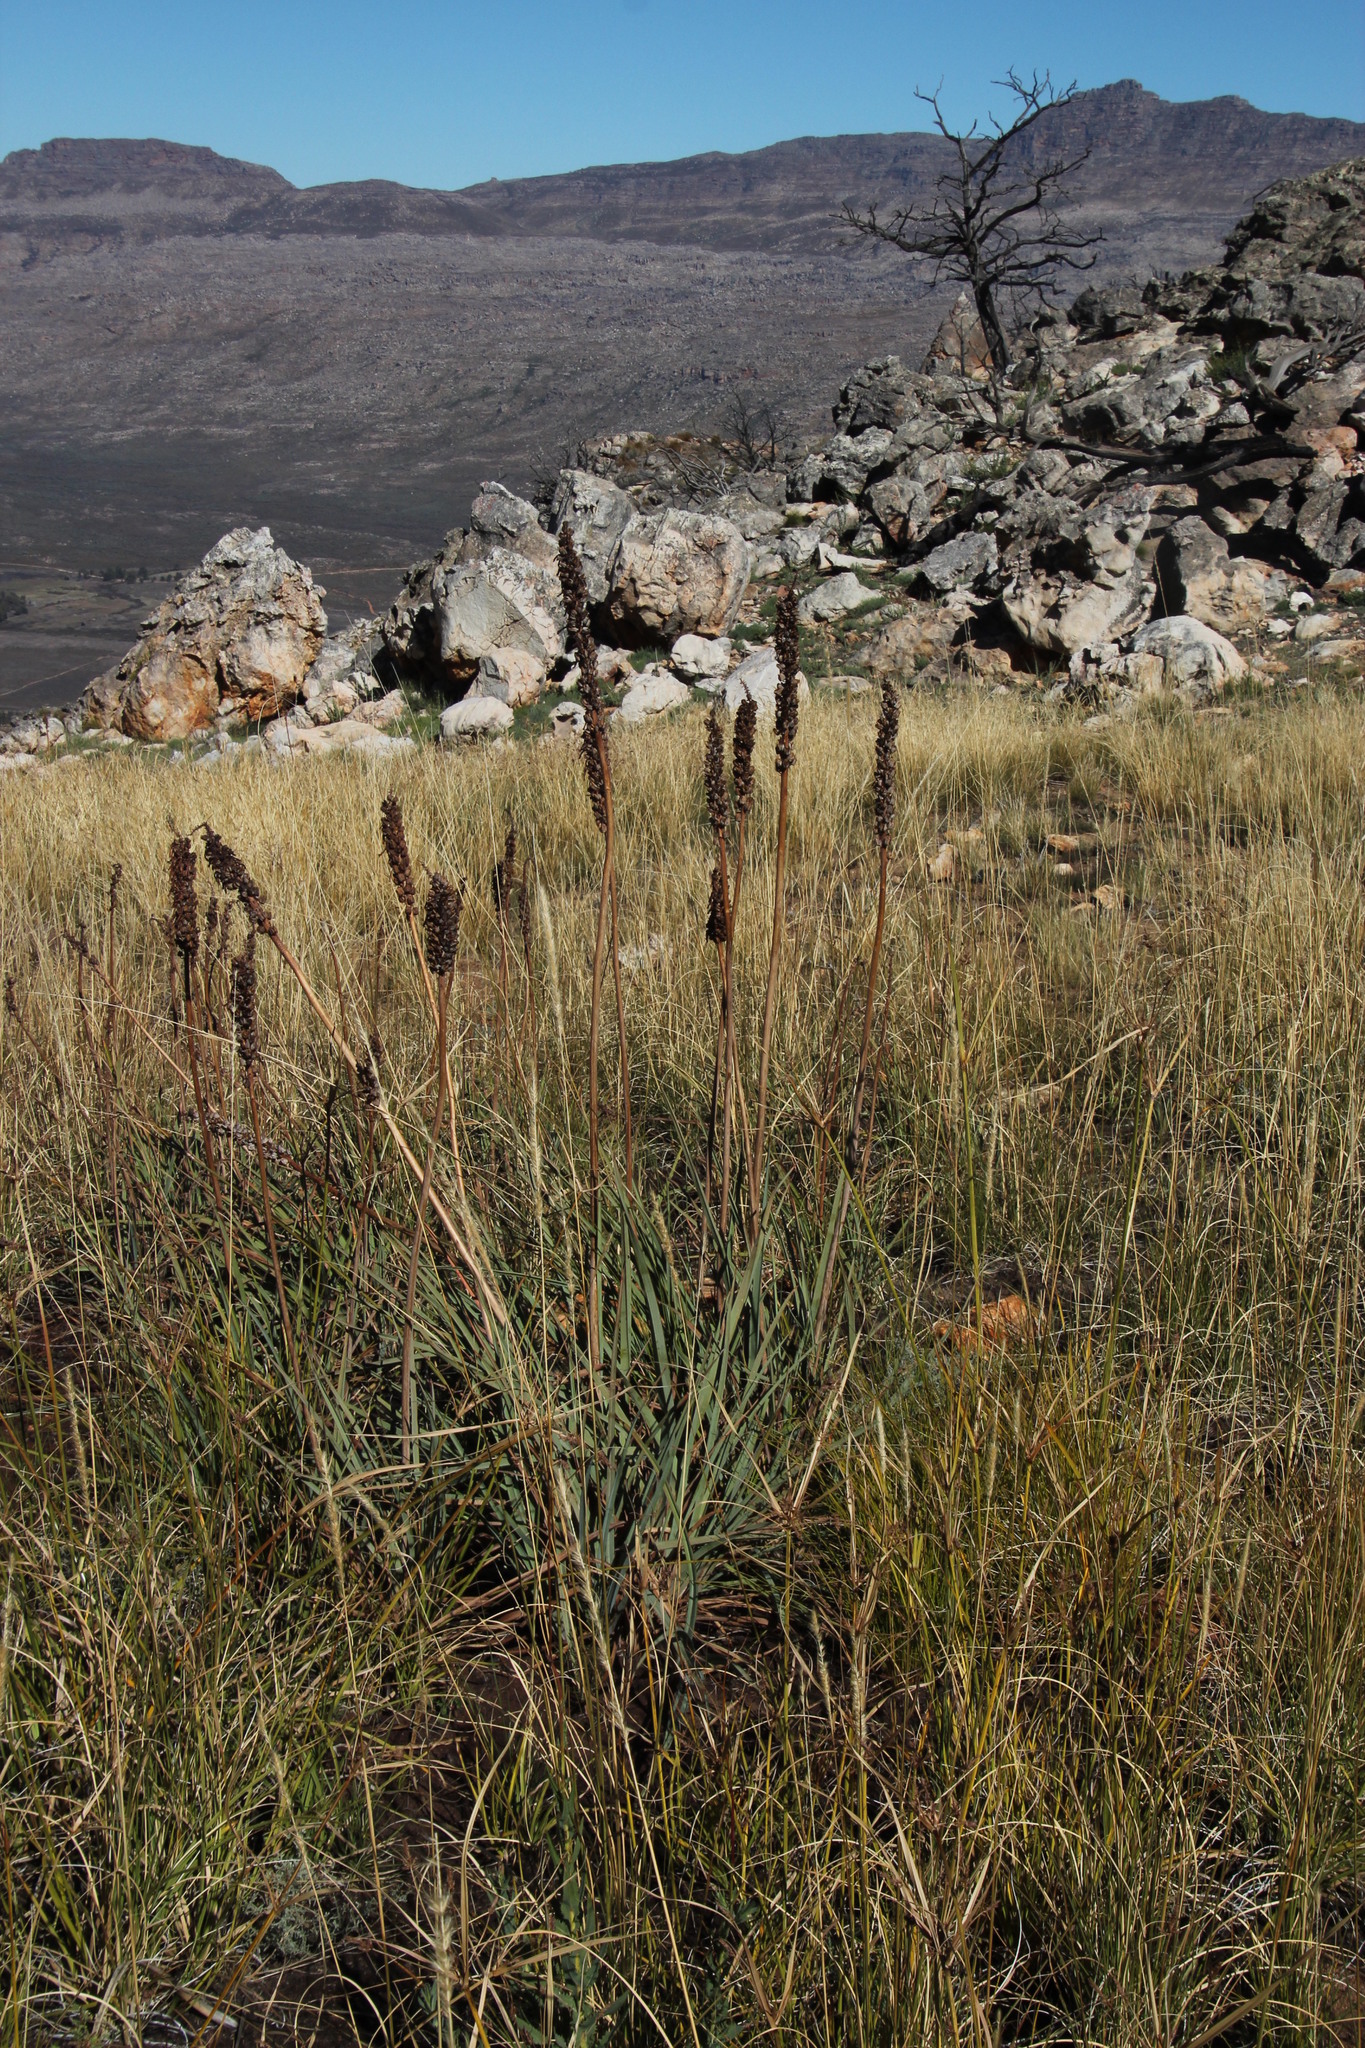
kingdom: Plantae
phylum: Tracheophyta
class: Liliopsida
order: Asparagales
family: Asphodelaceae
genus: Kniphofia
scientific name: Kniphofia uvaria
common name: Red-hot-poker
